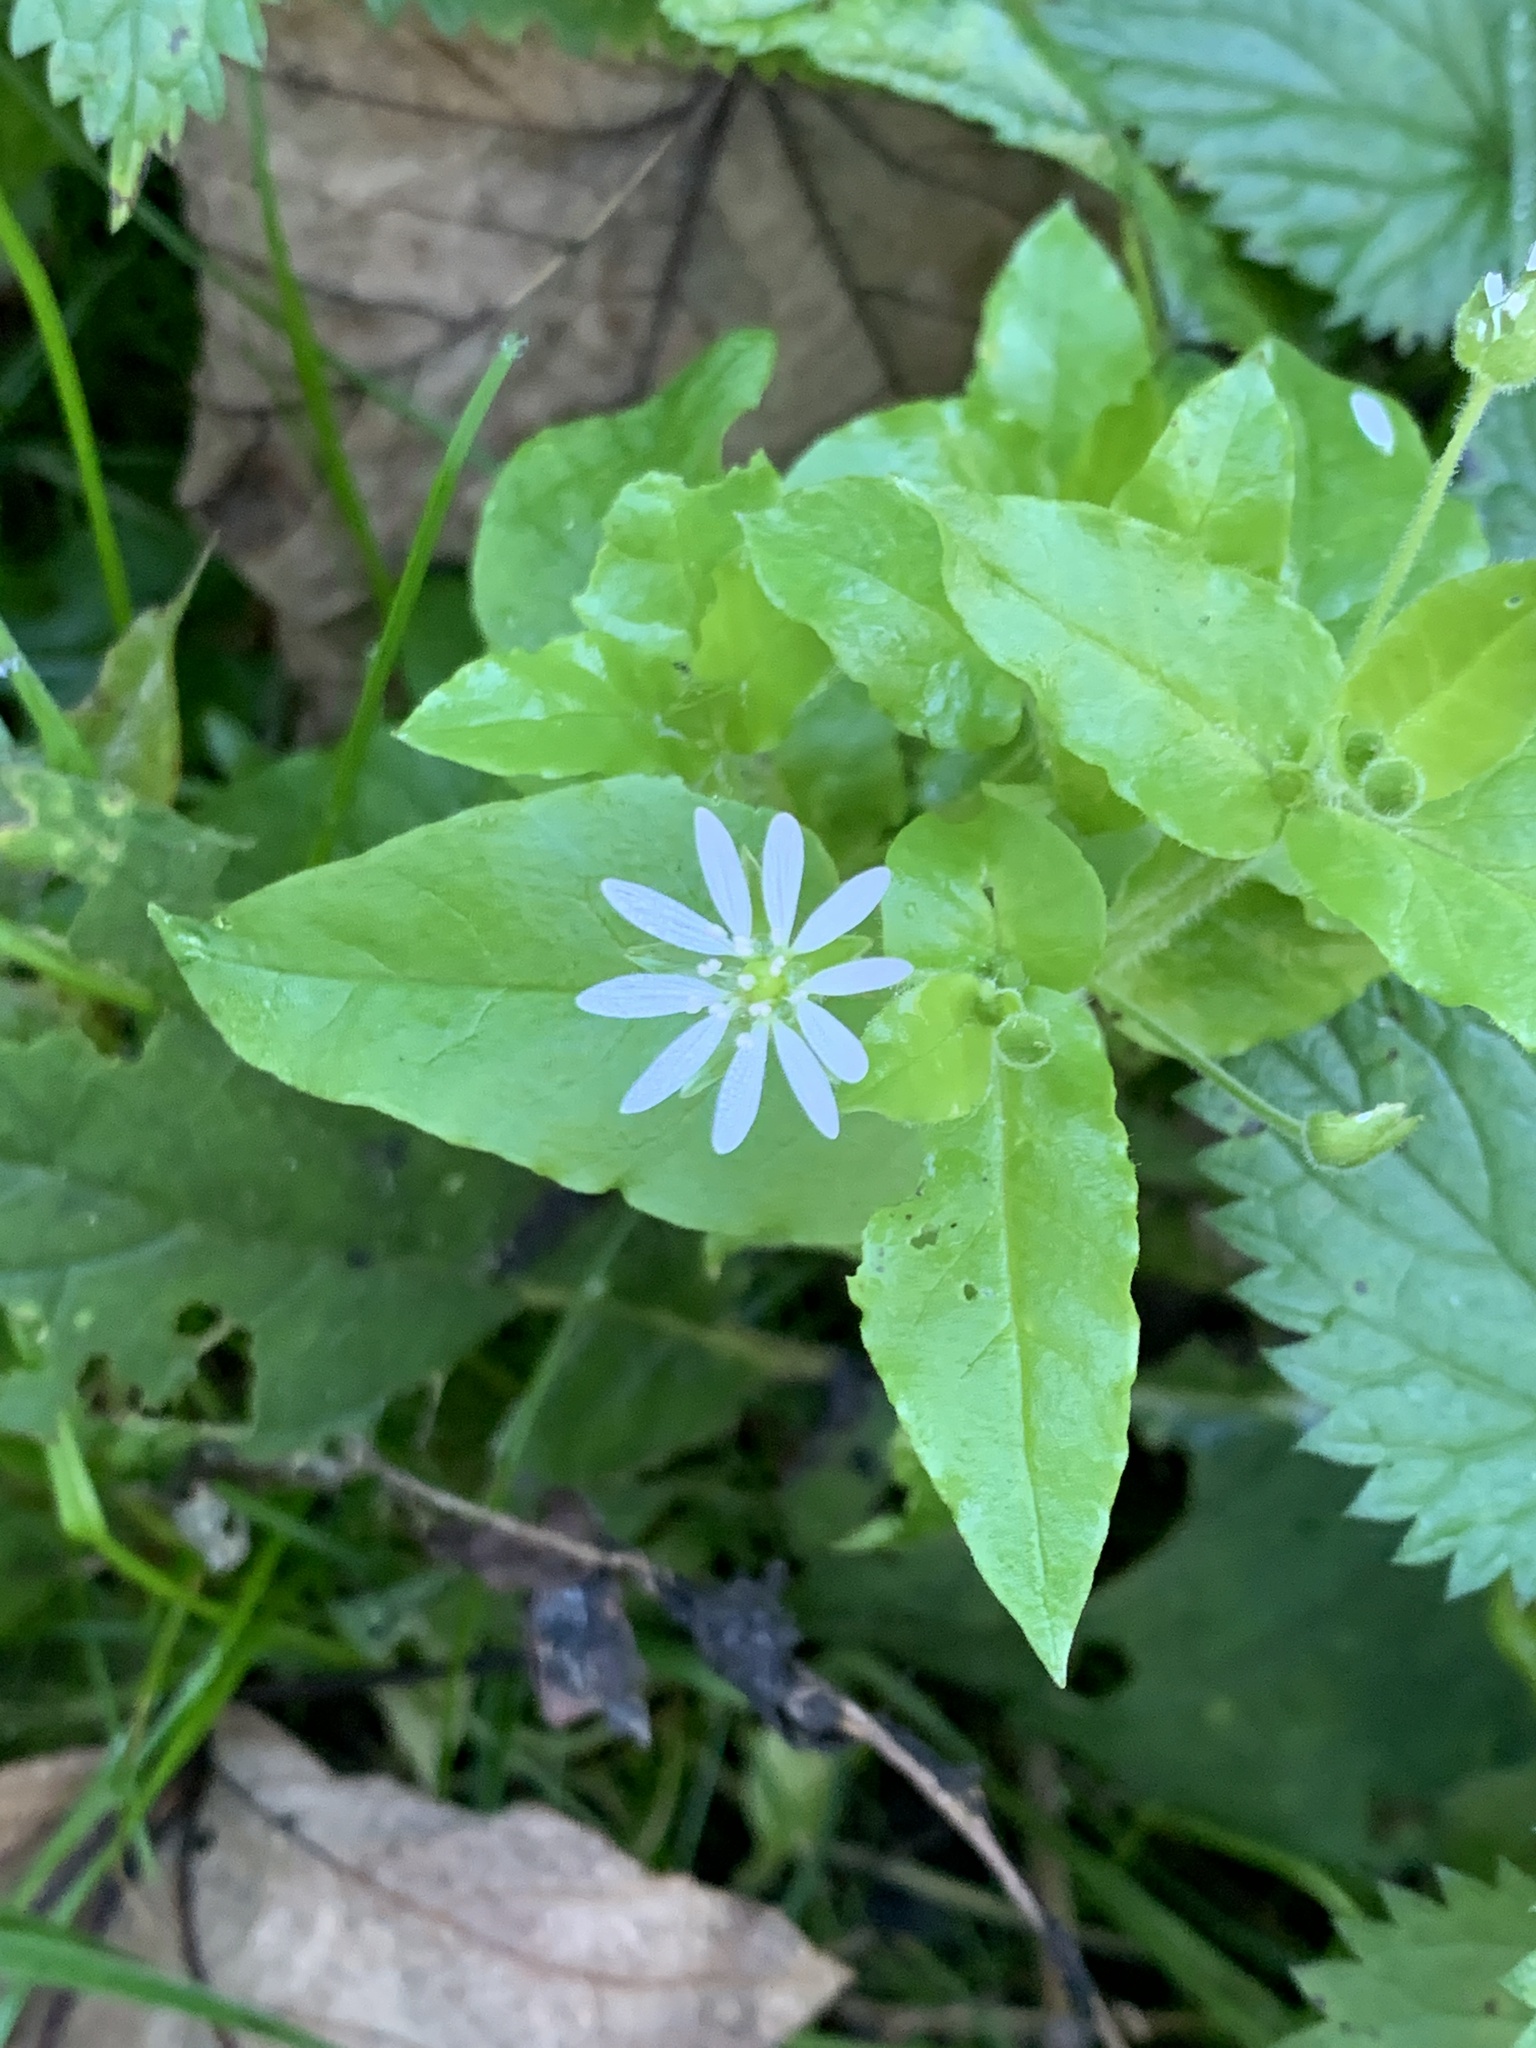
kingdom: Plantae
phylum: Tracheophyta
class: Magnoliopsida
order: Caryophyllales
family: Caryophyllaceae
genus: Stellaria
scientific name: Stellaria aquatica
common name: Water chickweed
